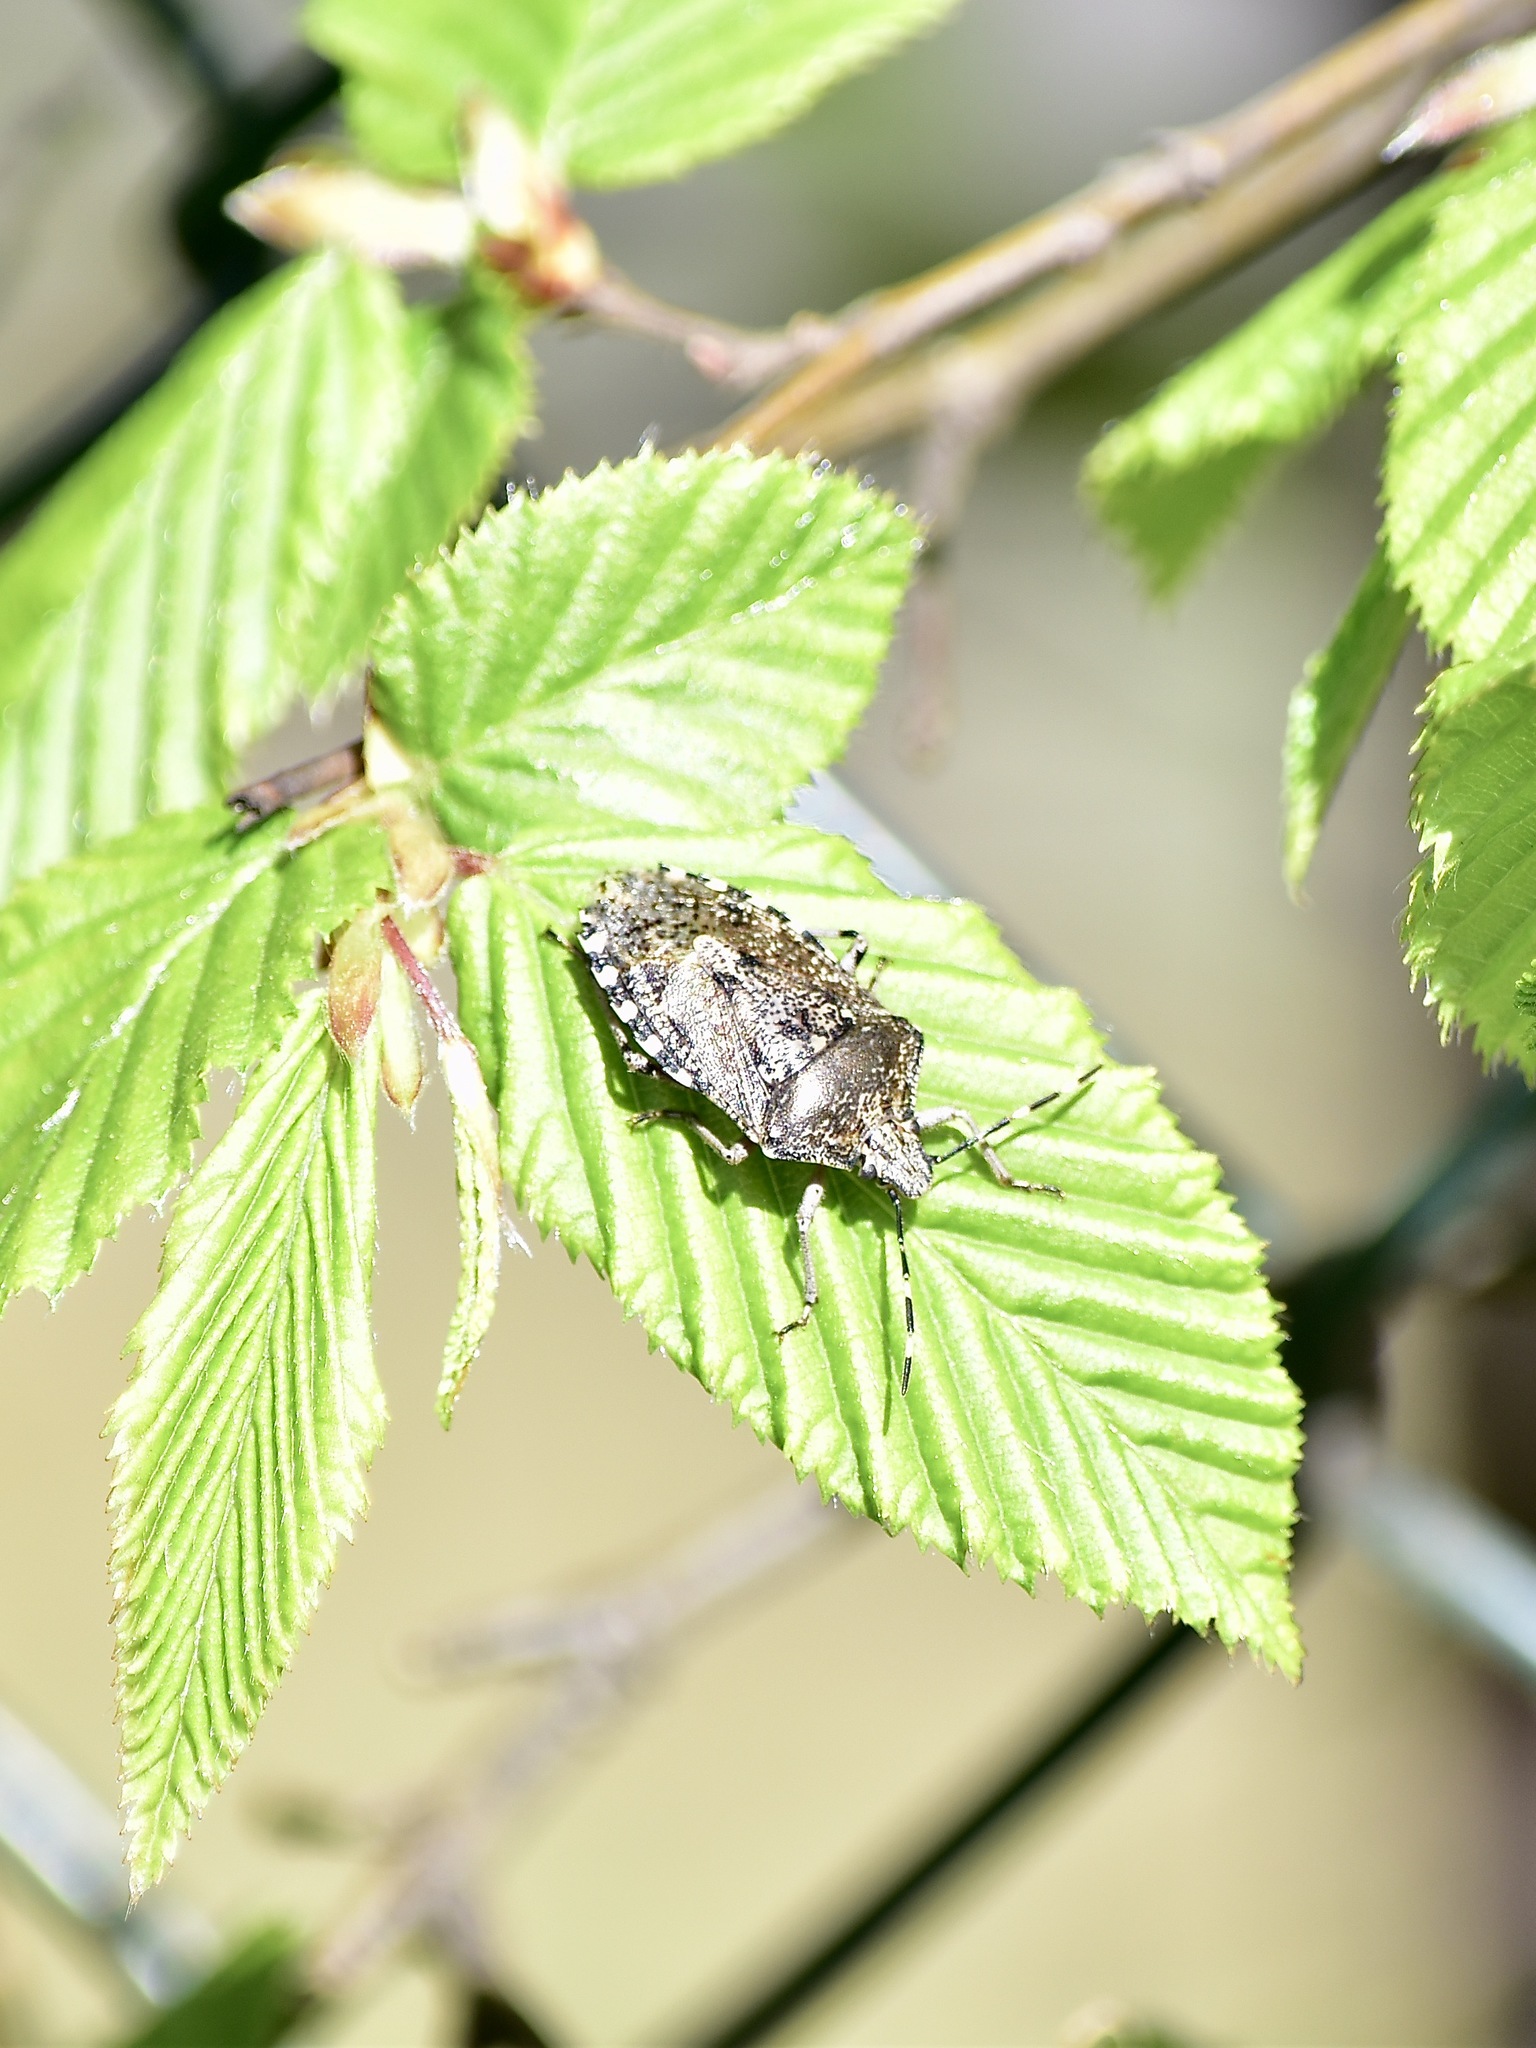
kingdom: Animalia
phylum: Arthropoda
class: Insecta
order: Hemiptera
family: Pentatomidae
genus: Rhaphigaster
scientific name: Rhaphigaster nebulosa
